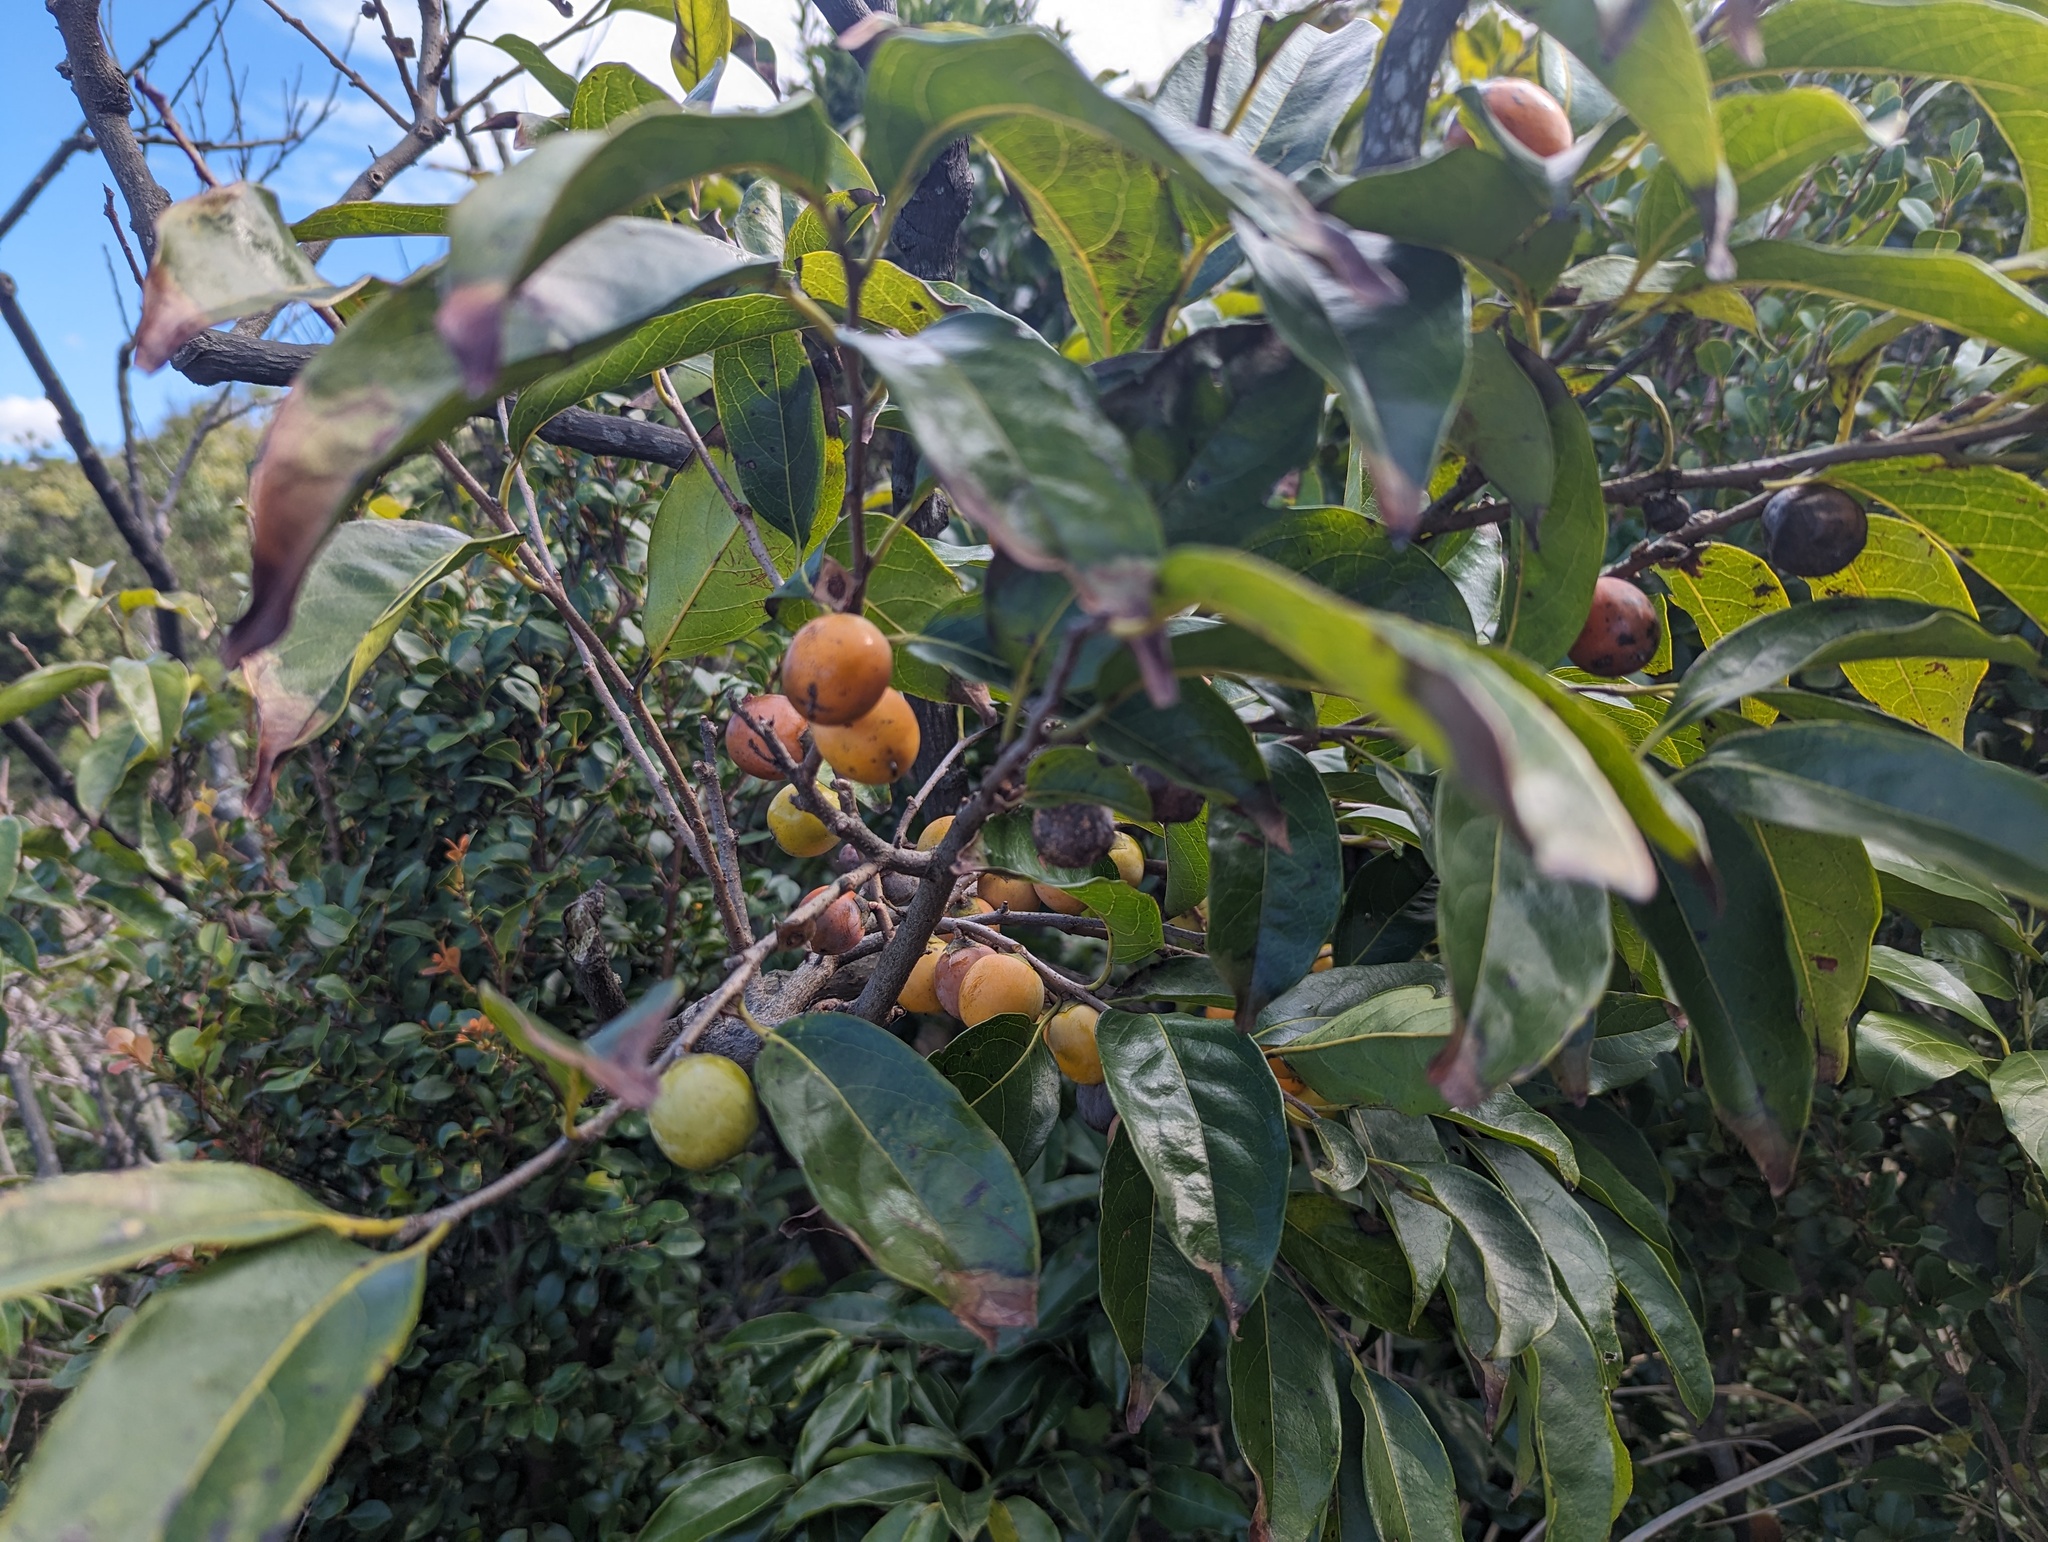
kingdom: Plantae
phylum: Tracheophyta
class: Magnoliopsida
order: Ericales
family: Ebenaceae
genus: Diospyros
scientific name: Diospyros morrisiana
